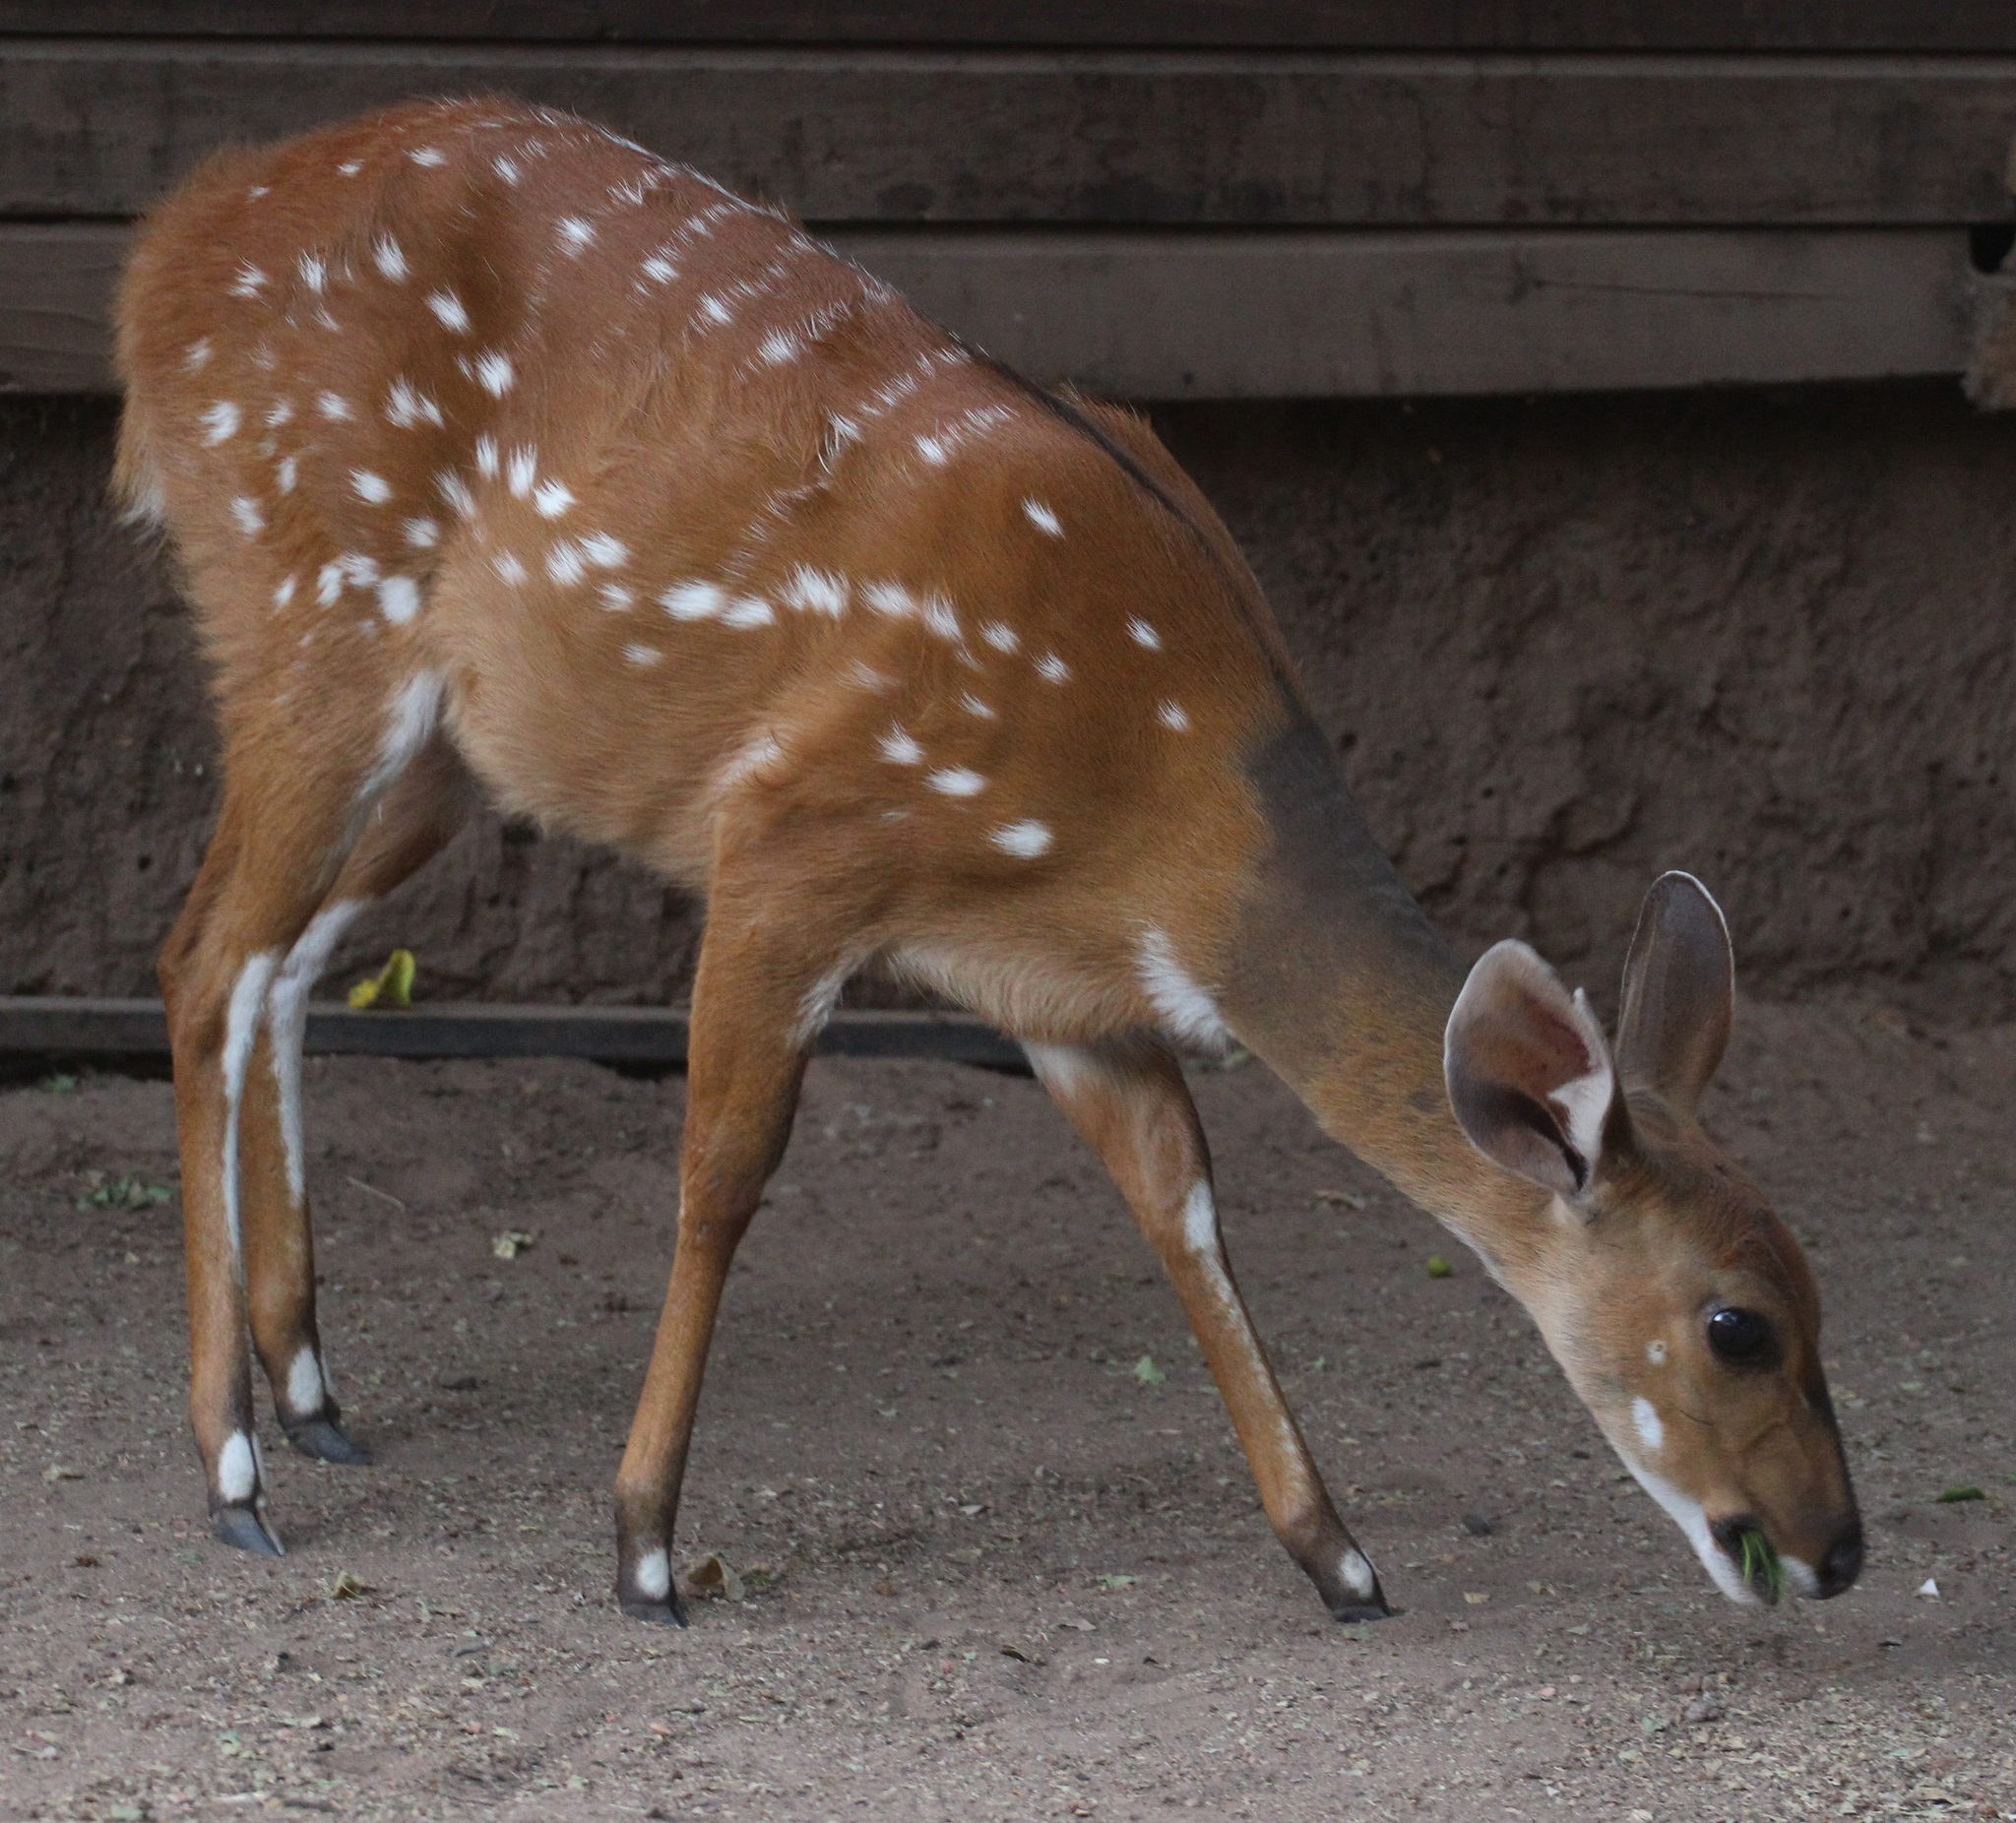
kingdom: Animalia
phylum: Chordata
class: Mammalia
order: Artiodactyla
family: Bovidae
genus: Tragelaphus
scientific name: Tragelaphus scriptus
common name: Bushbuck
